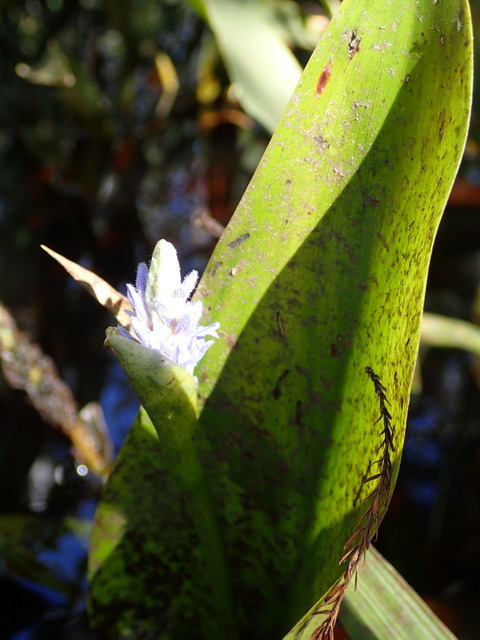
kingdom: Plantae
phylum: Tracheophyta
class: Liliopsida
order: Commelinales
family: Pontederiaceae
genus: Pontederia
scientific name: Pontederia cordata
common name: Pickerelweed
